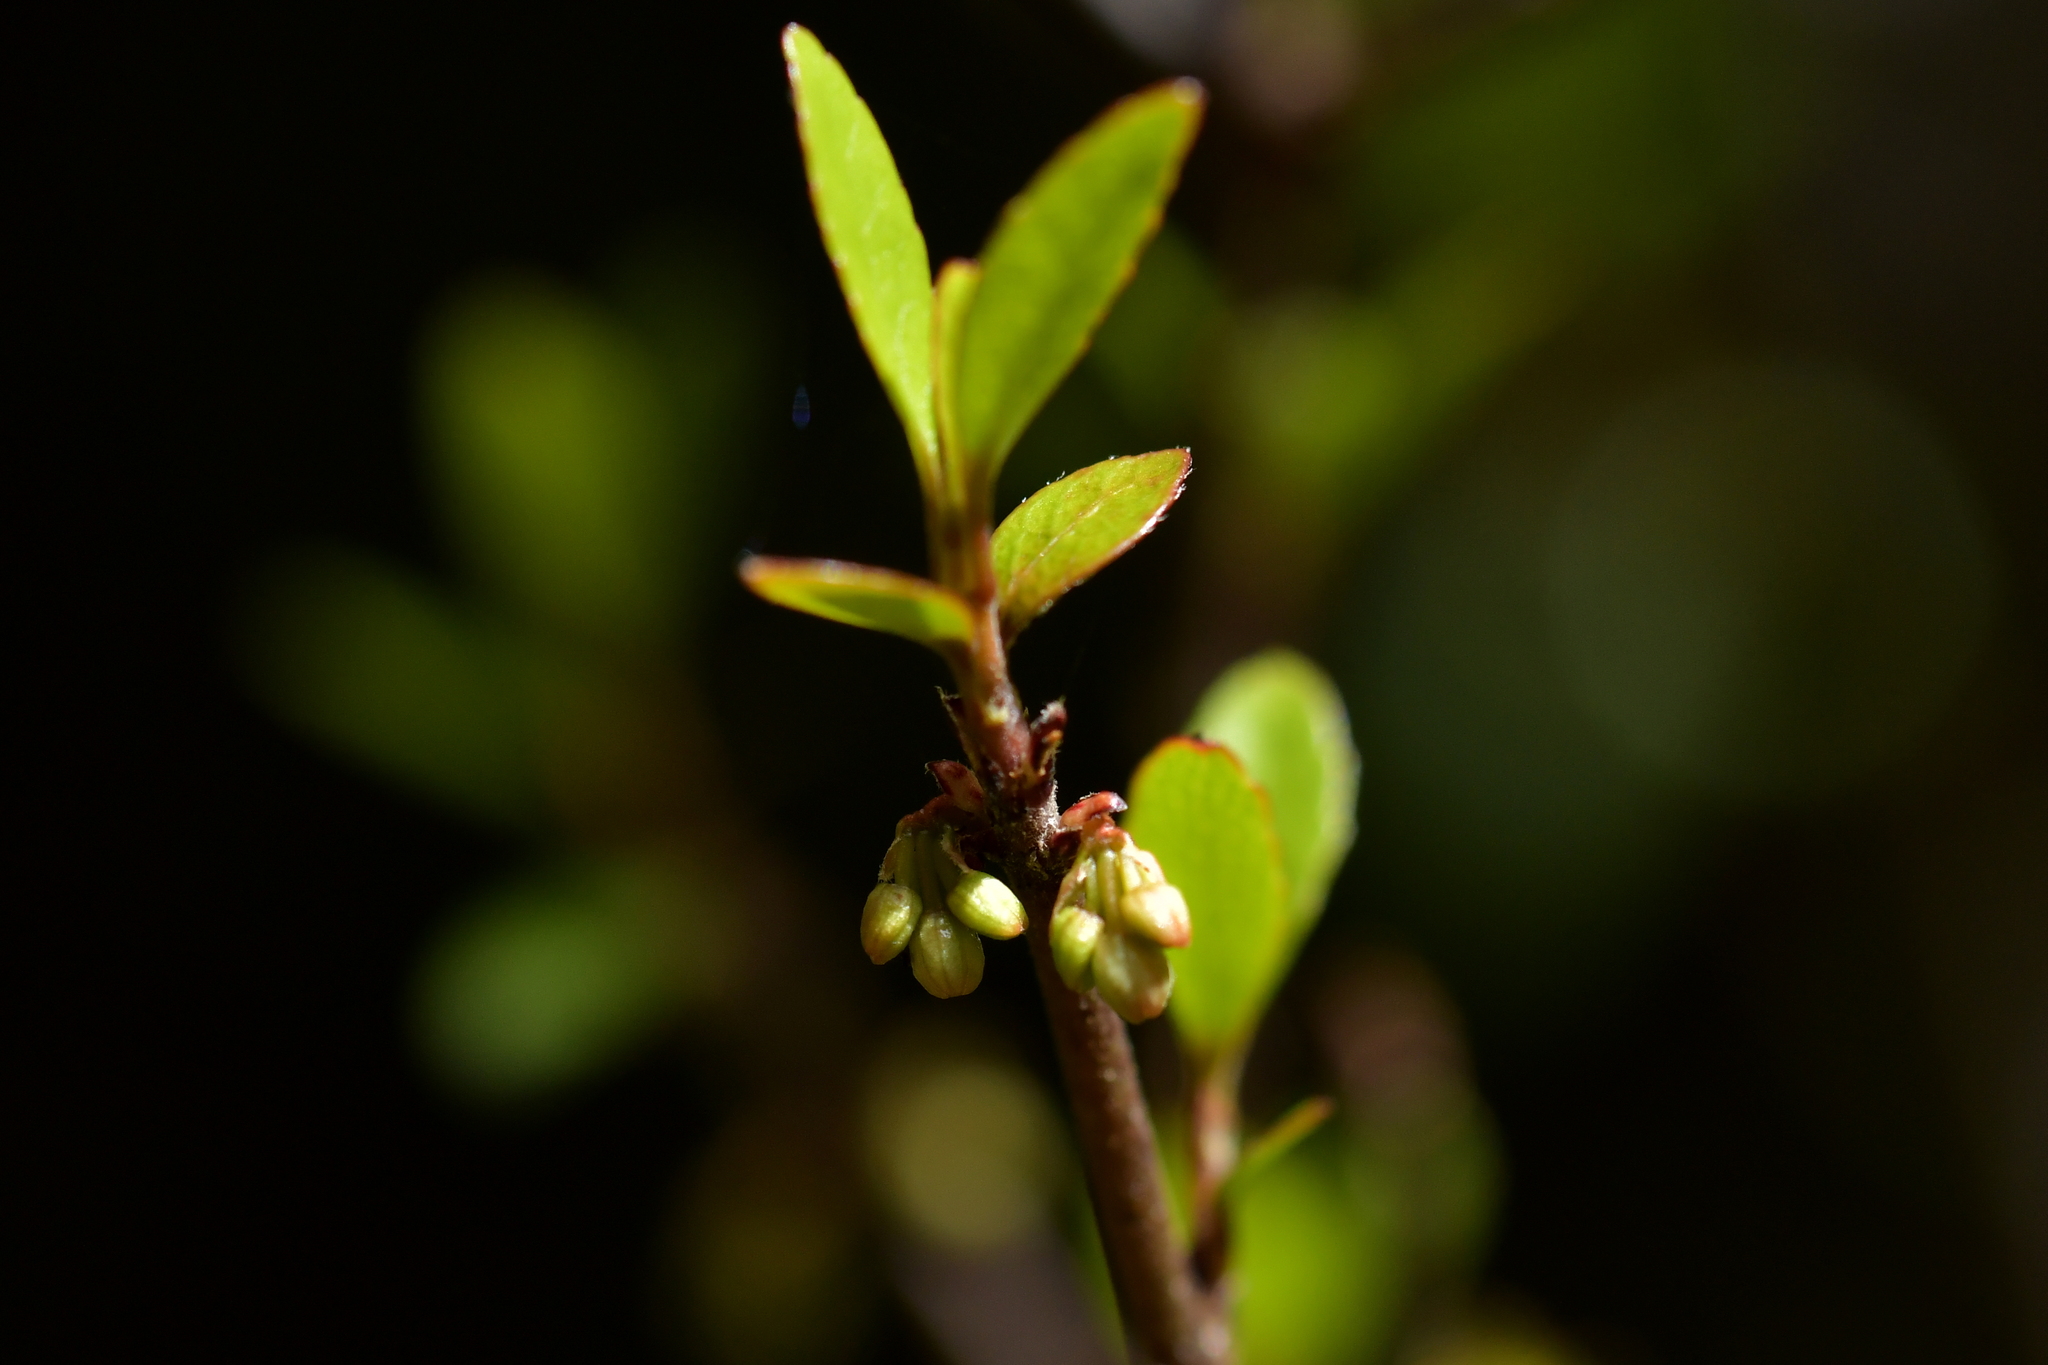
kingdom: Plantae
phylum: Tracheophyta
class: Magnoliopsida
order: Oxalidales
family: Elaeocarpaceae
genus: Aristotelia
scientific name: Aristotelia fruticosa
